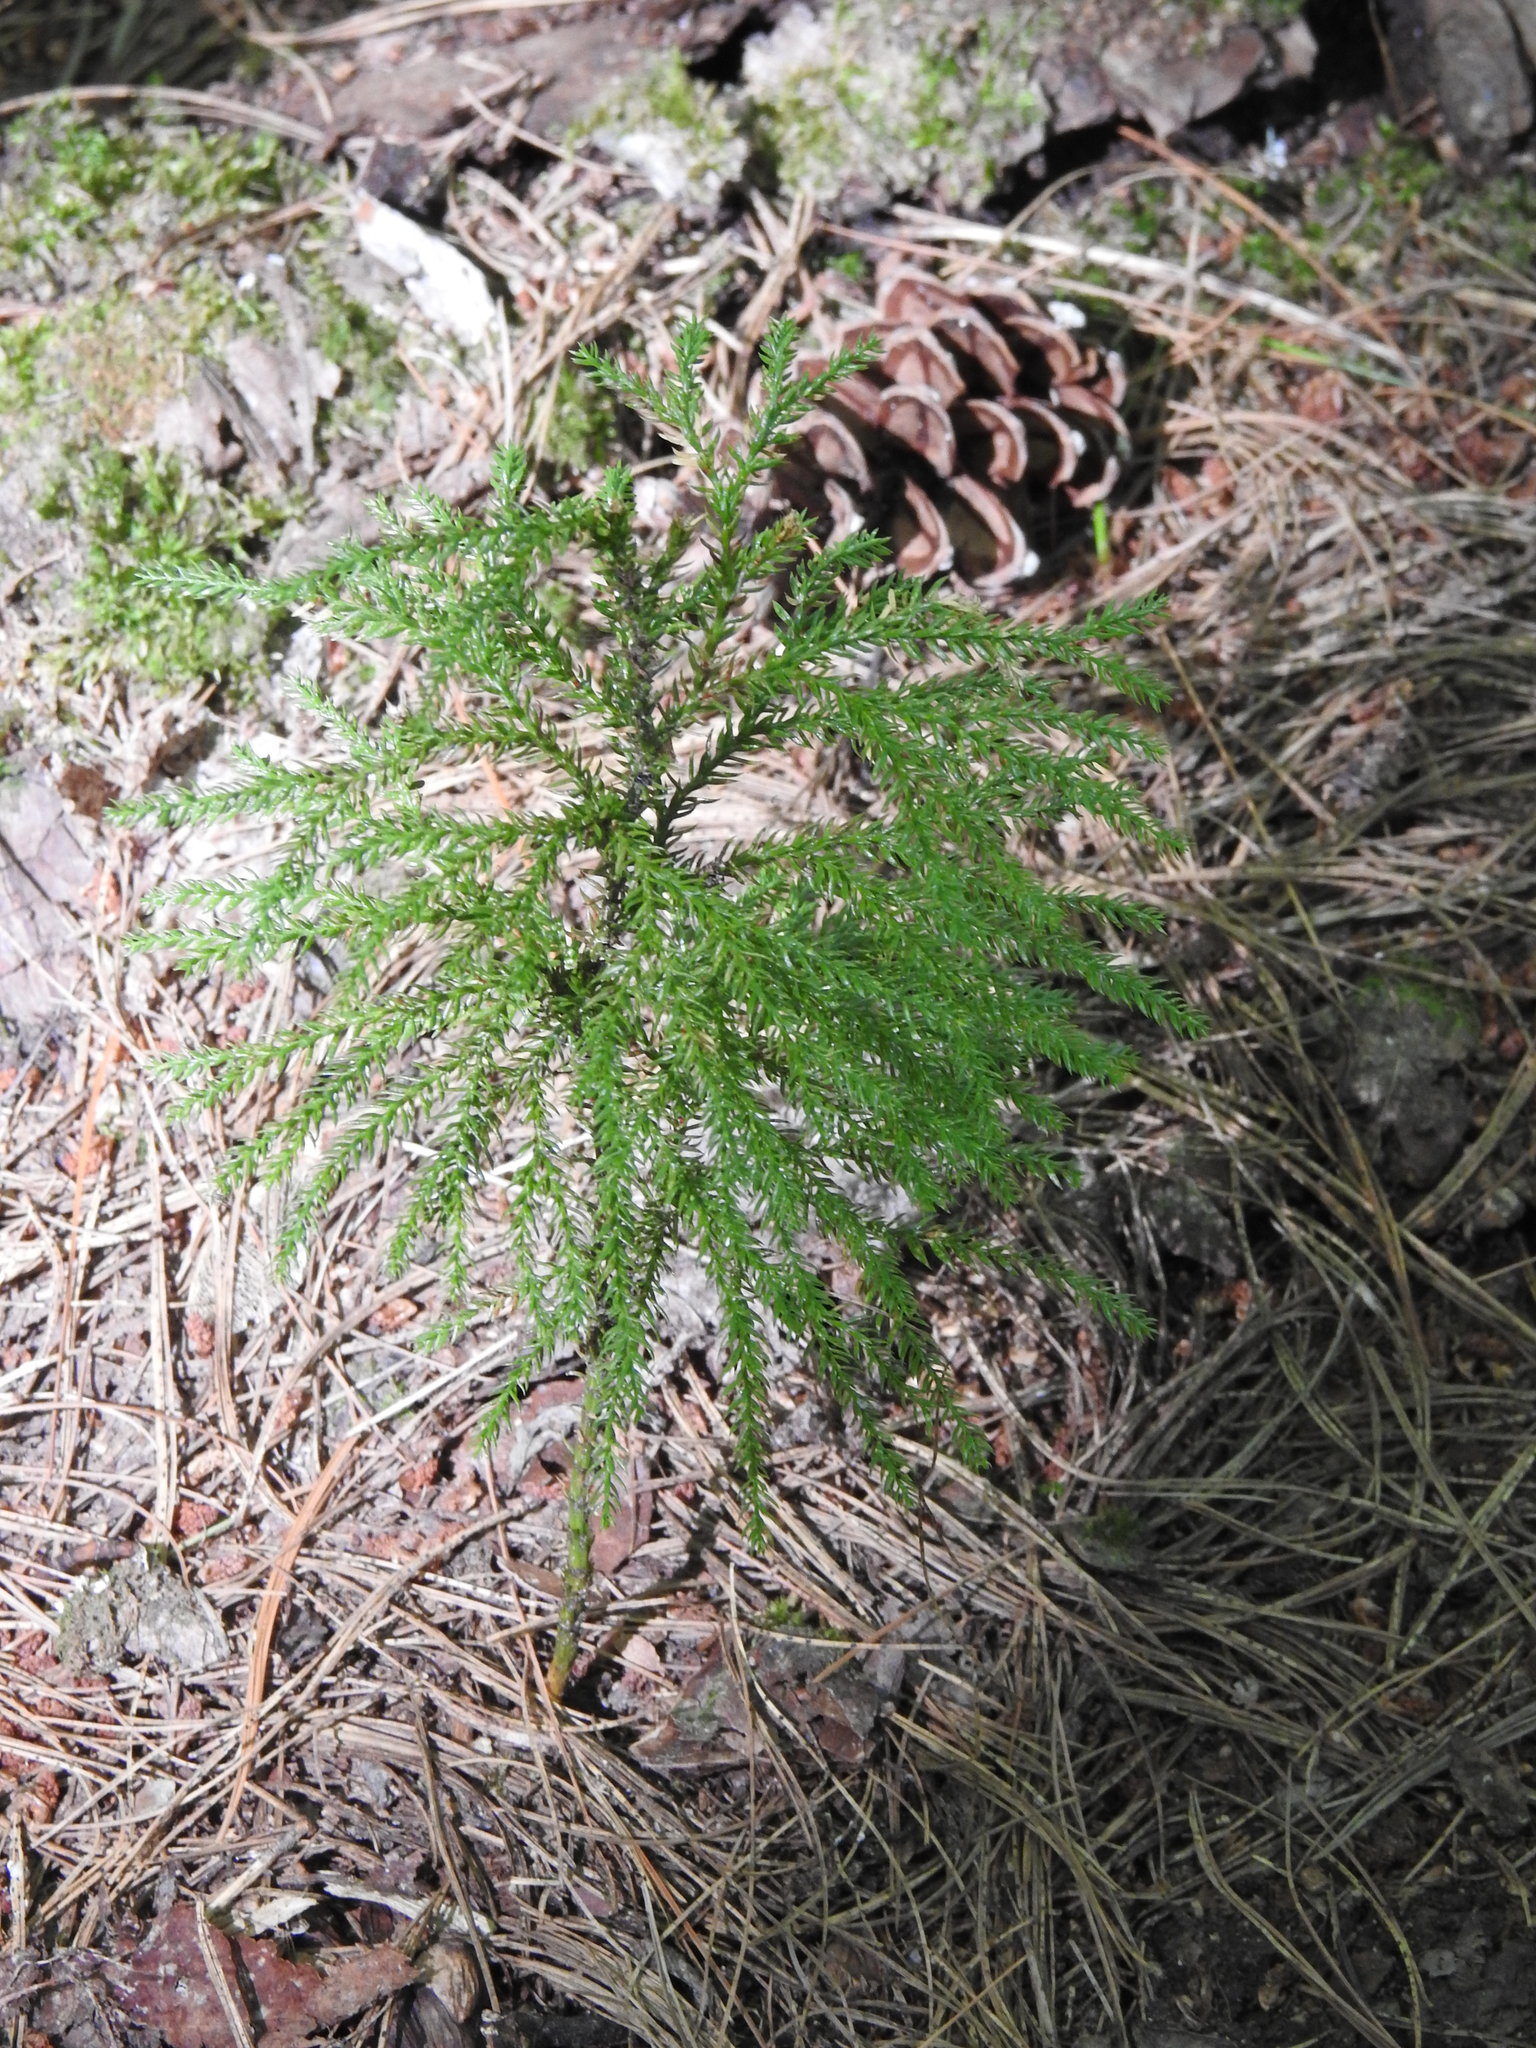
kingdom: Plantae
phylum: Tracheophyta
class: Lycopodiopsida
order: Lycopodiales
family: Lycopodiaceae
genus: Dendrolycopodium
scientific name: Dendrolycopodium dendroideum
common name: Northern tree-clubmoss
